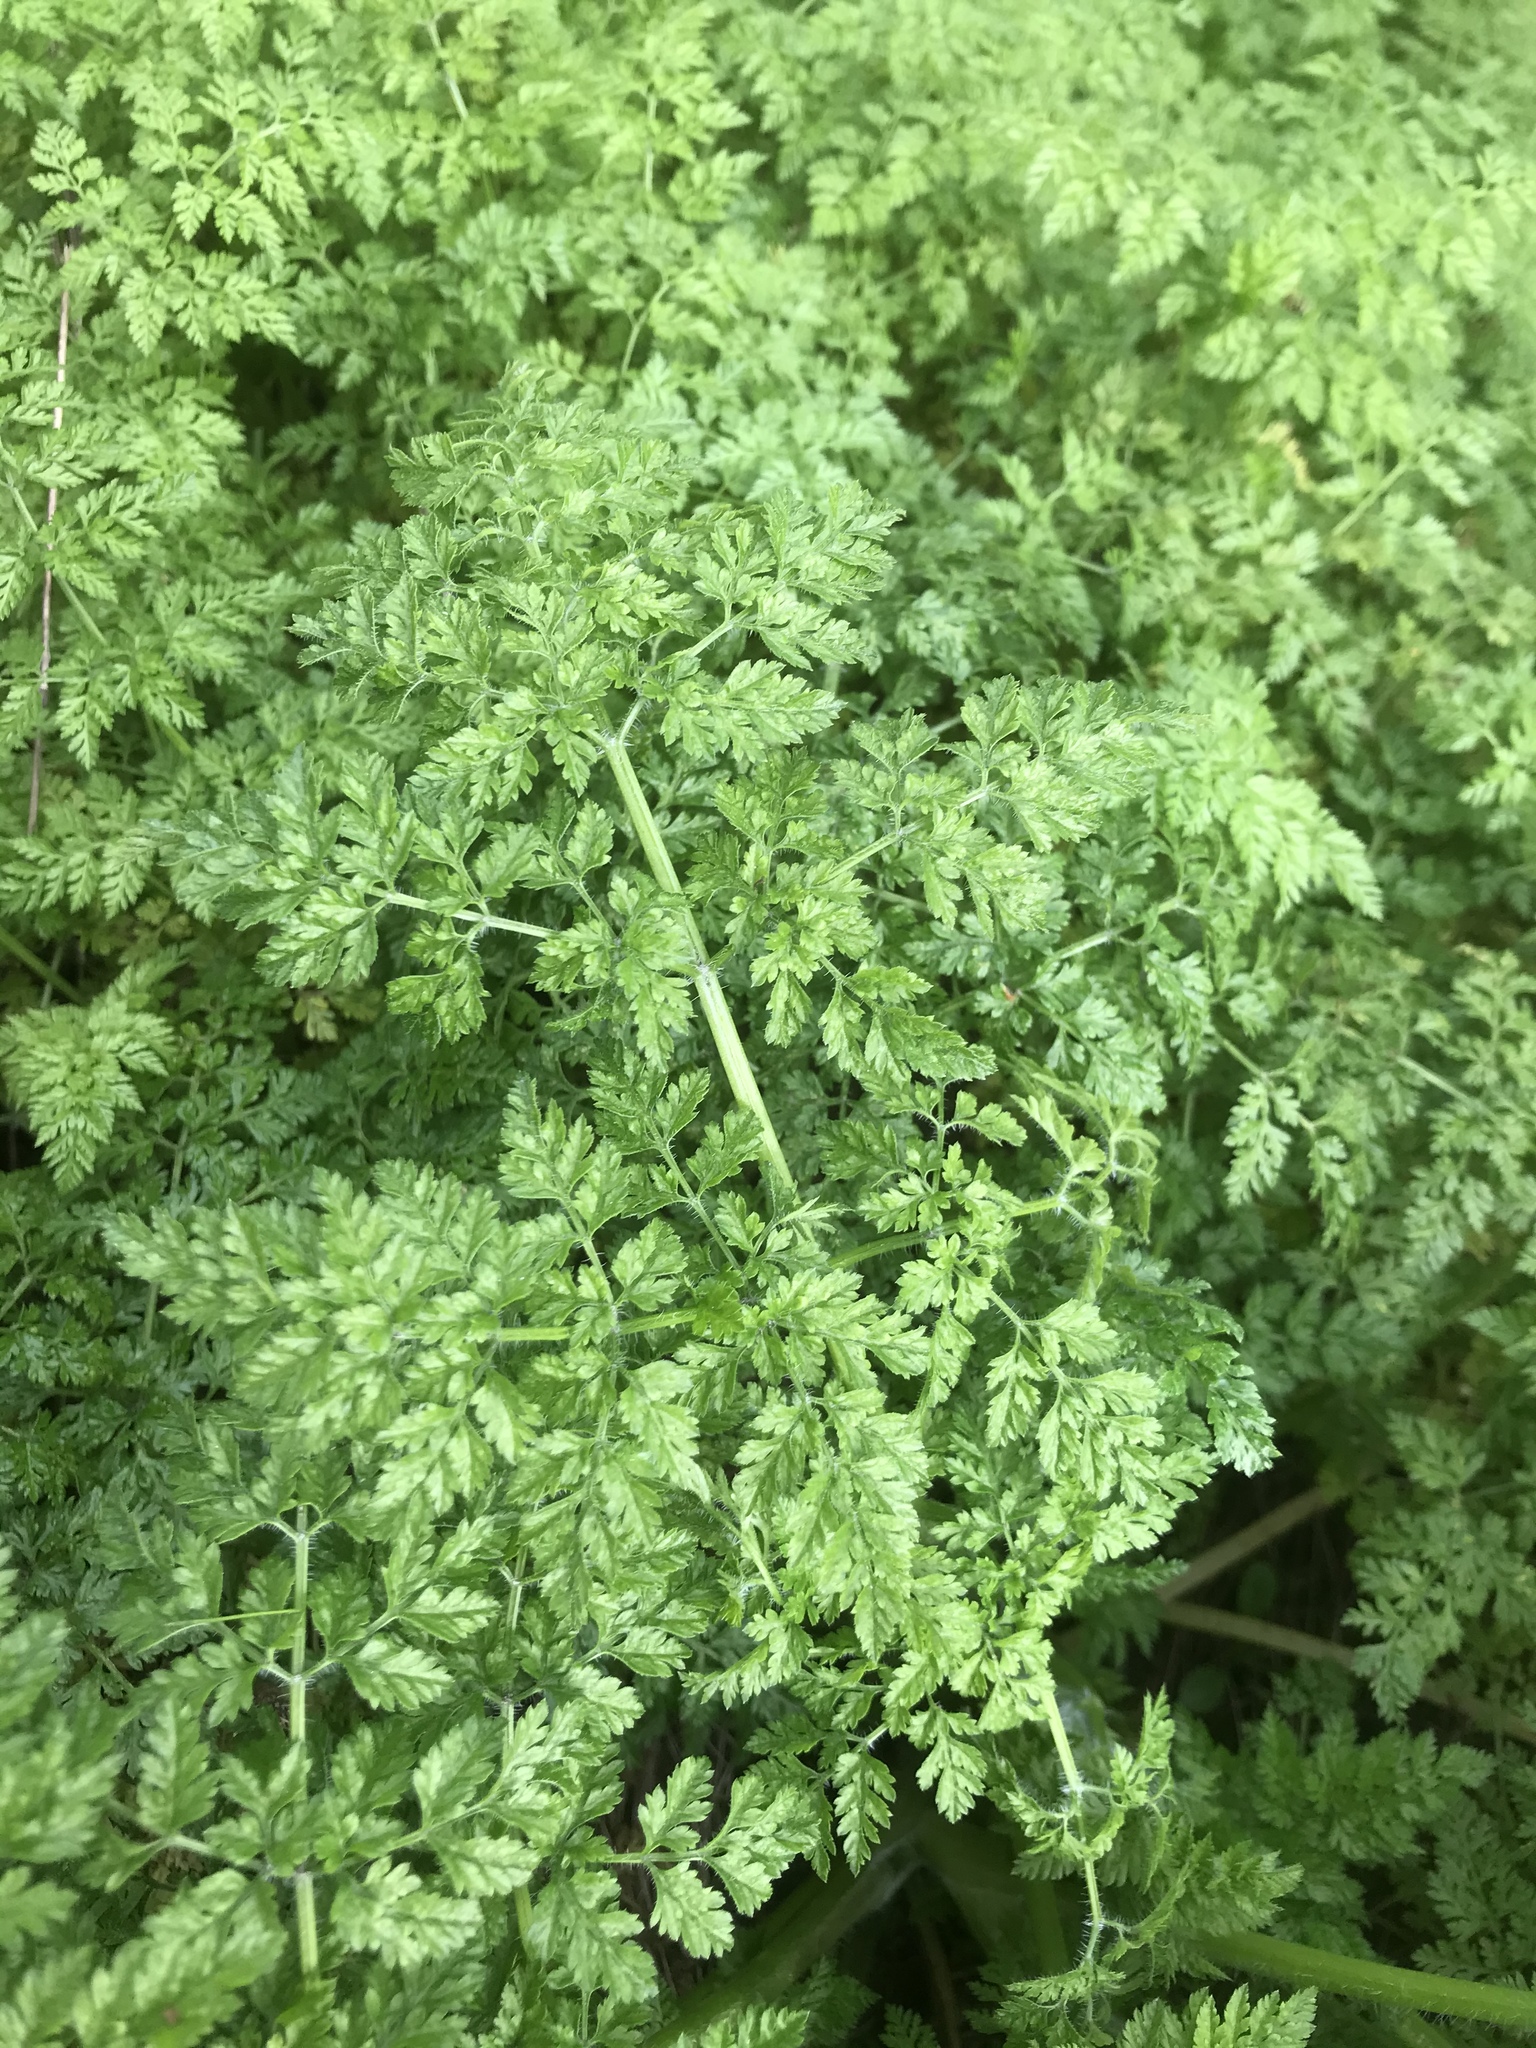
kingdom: Plantae
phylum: Tracheophyta
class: Magnoliopsida
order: Apiales
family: Apiaceae
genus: Anthriscus
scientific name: Anthriscus caucalis
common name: Bur chervil
